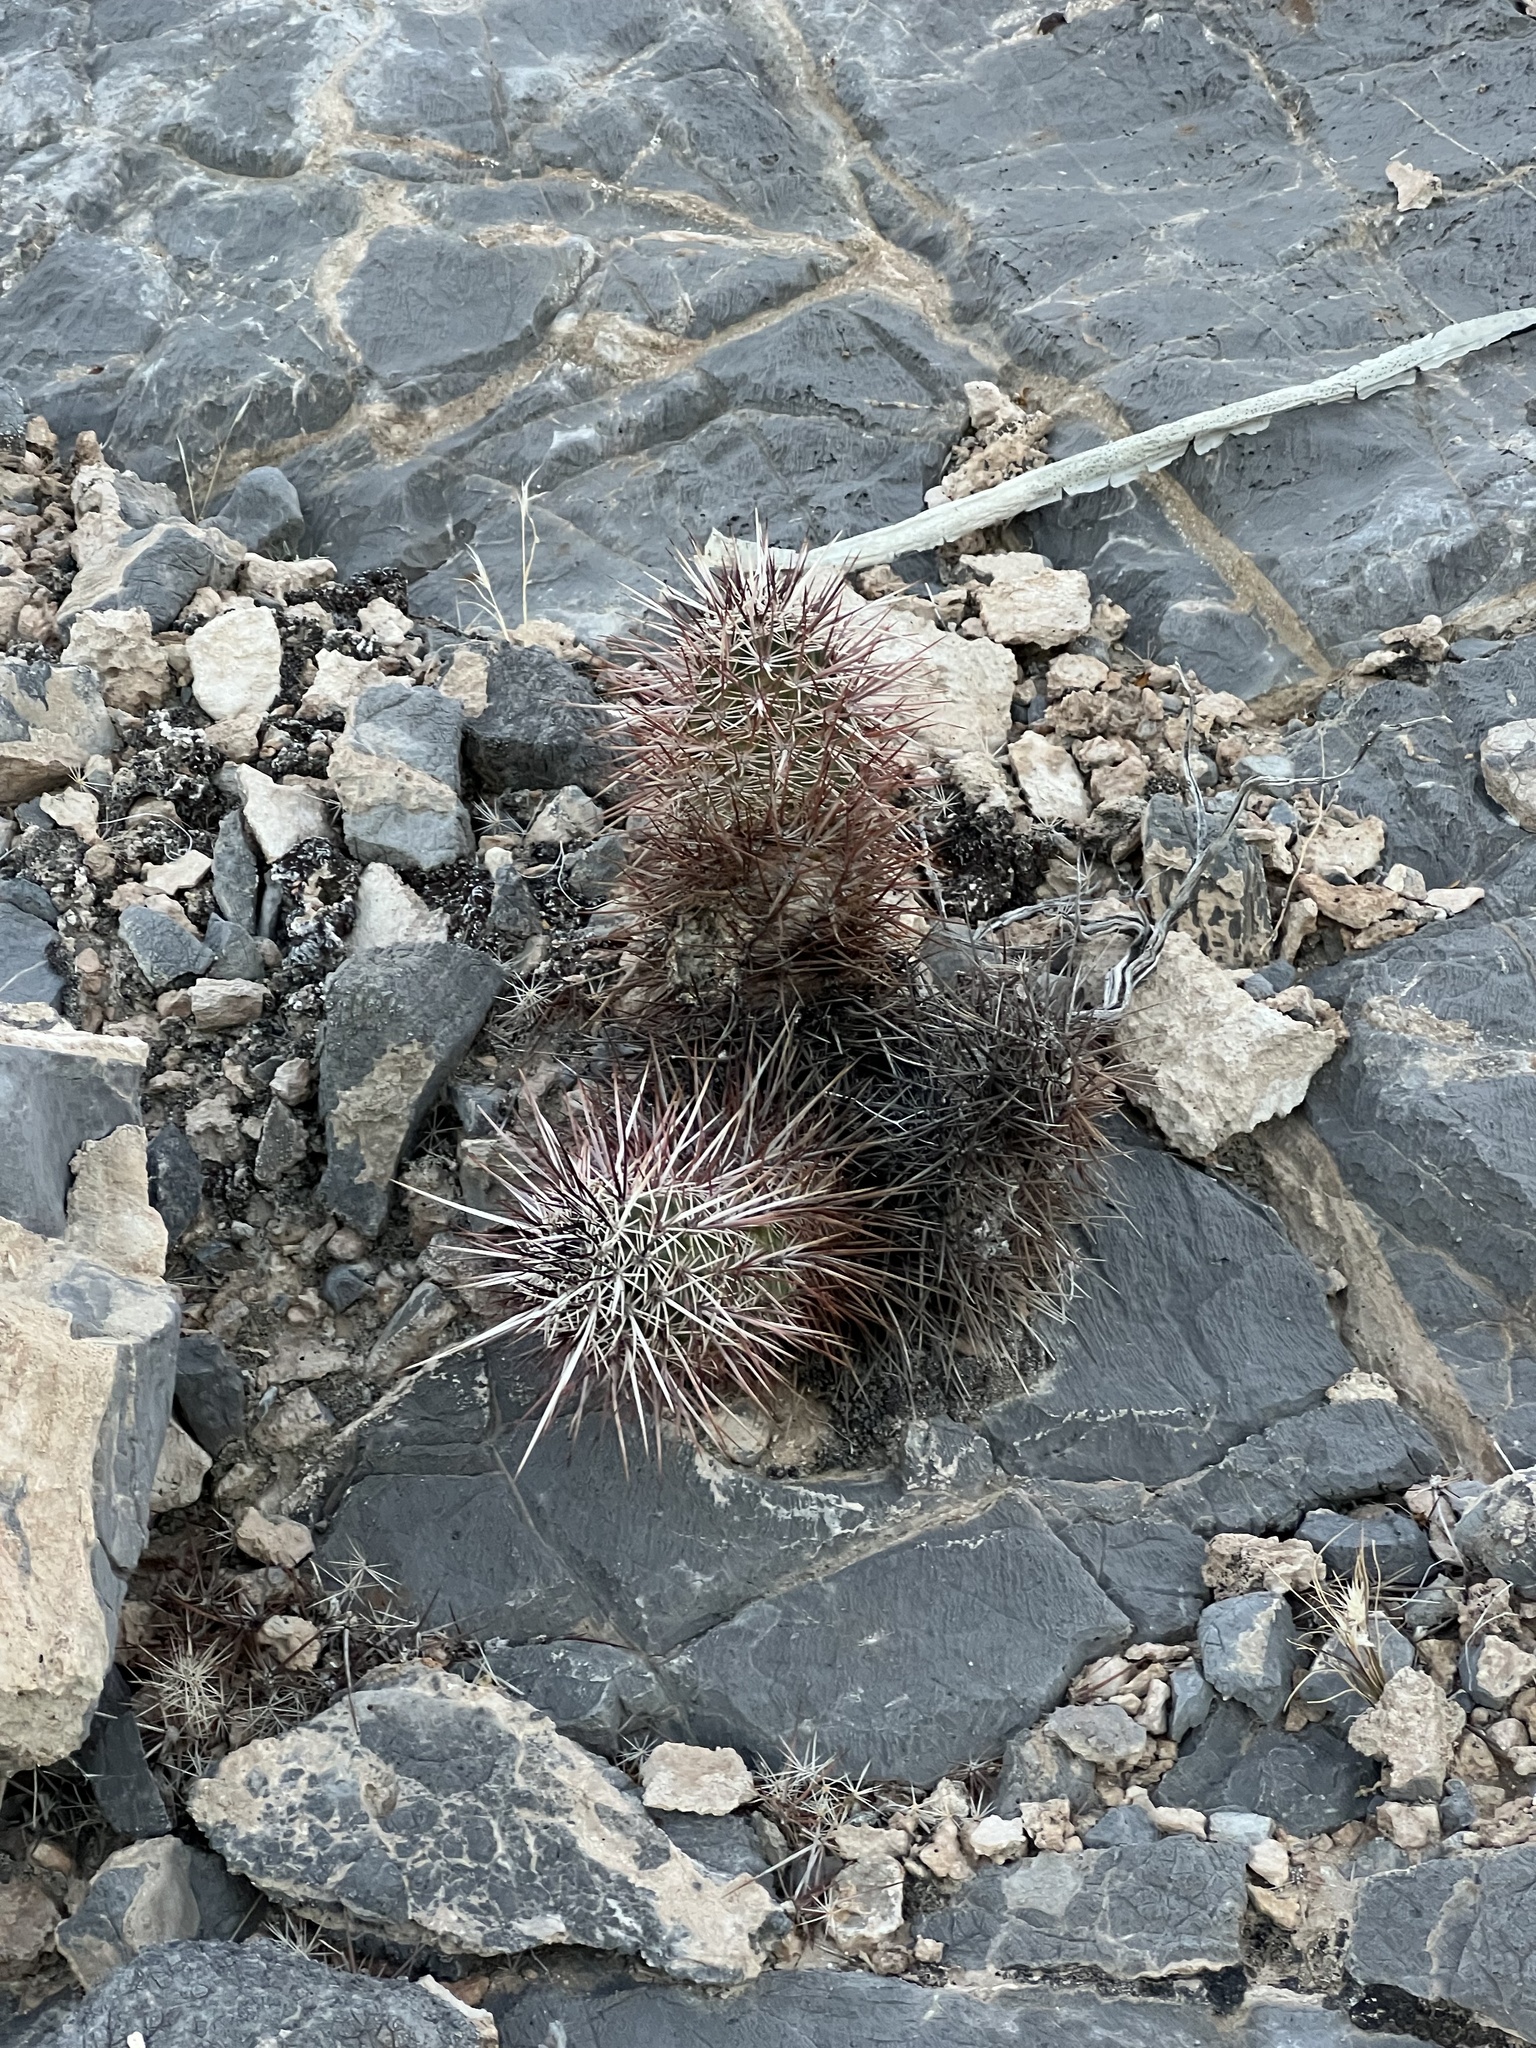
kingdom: Plantae
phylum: Tracheophyta
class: Magnoliopsida
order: Caryophyllales
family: Cactaceae
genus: Echinocereus
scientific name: Echinocereus engelmannii
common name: Engelmann's hedgehog cactus
